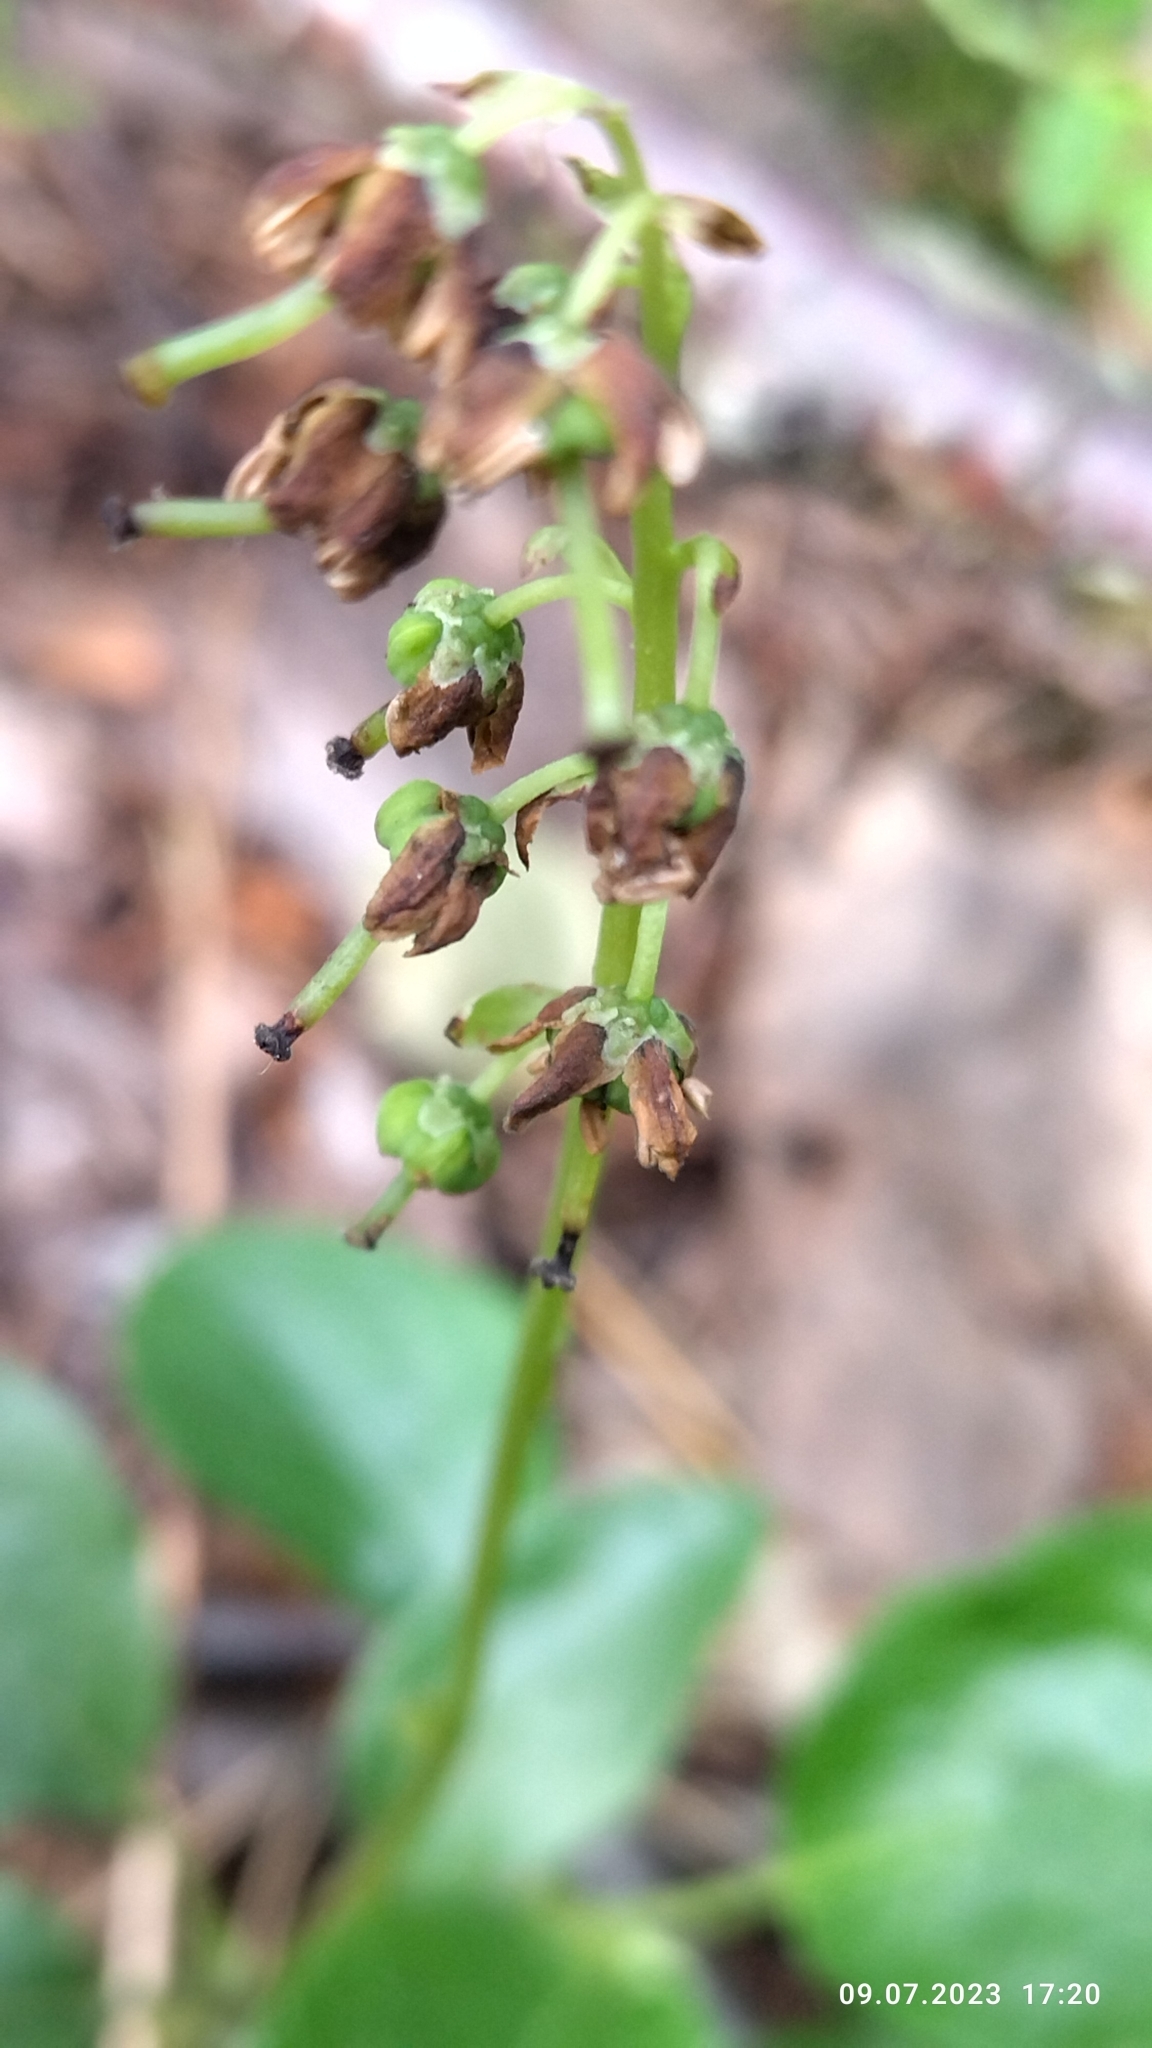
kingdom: Plantae
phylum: Tracheophyta
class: Magnoliopsida
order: Ericales
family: Ericaceae
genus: Orthilia
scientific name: Orthilia secunda
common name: One-sided orthilia
